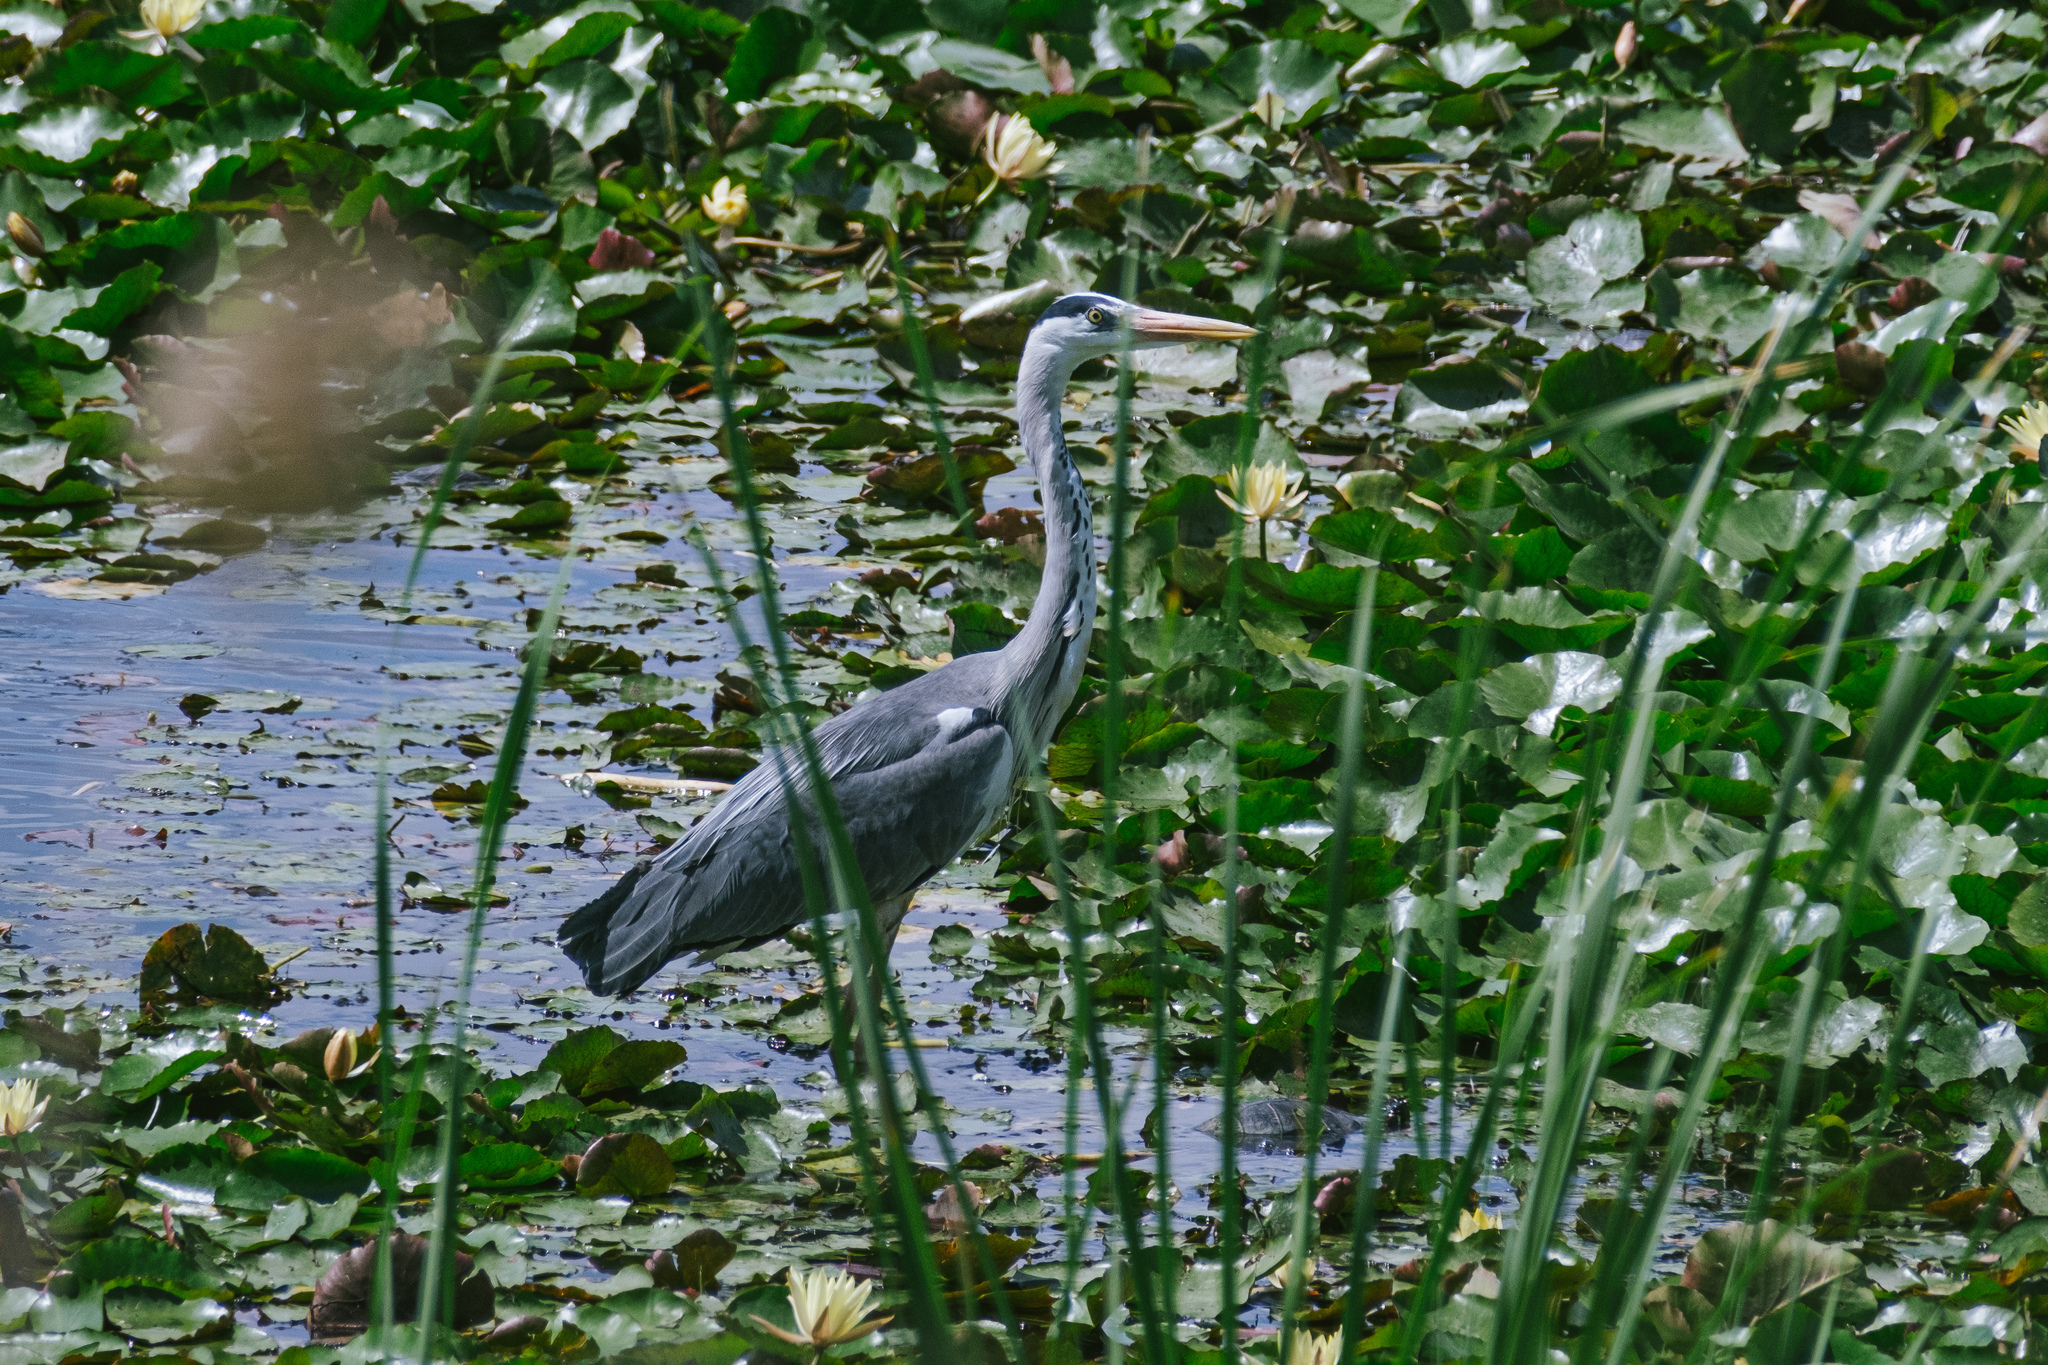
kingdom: Animalia
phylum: Chordata
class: Aves
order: Pelecaniformes
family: Ardeidae
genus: Ardea
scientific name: Ardea cinerea
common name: Grey heron
